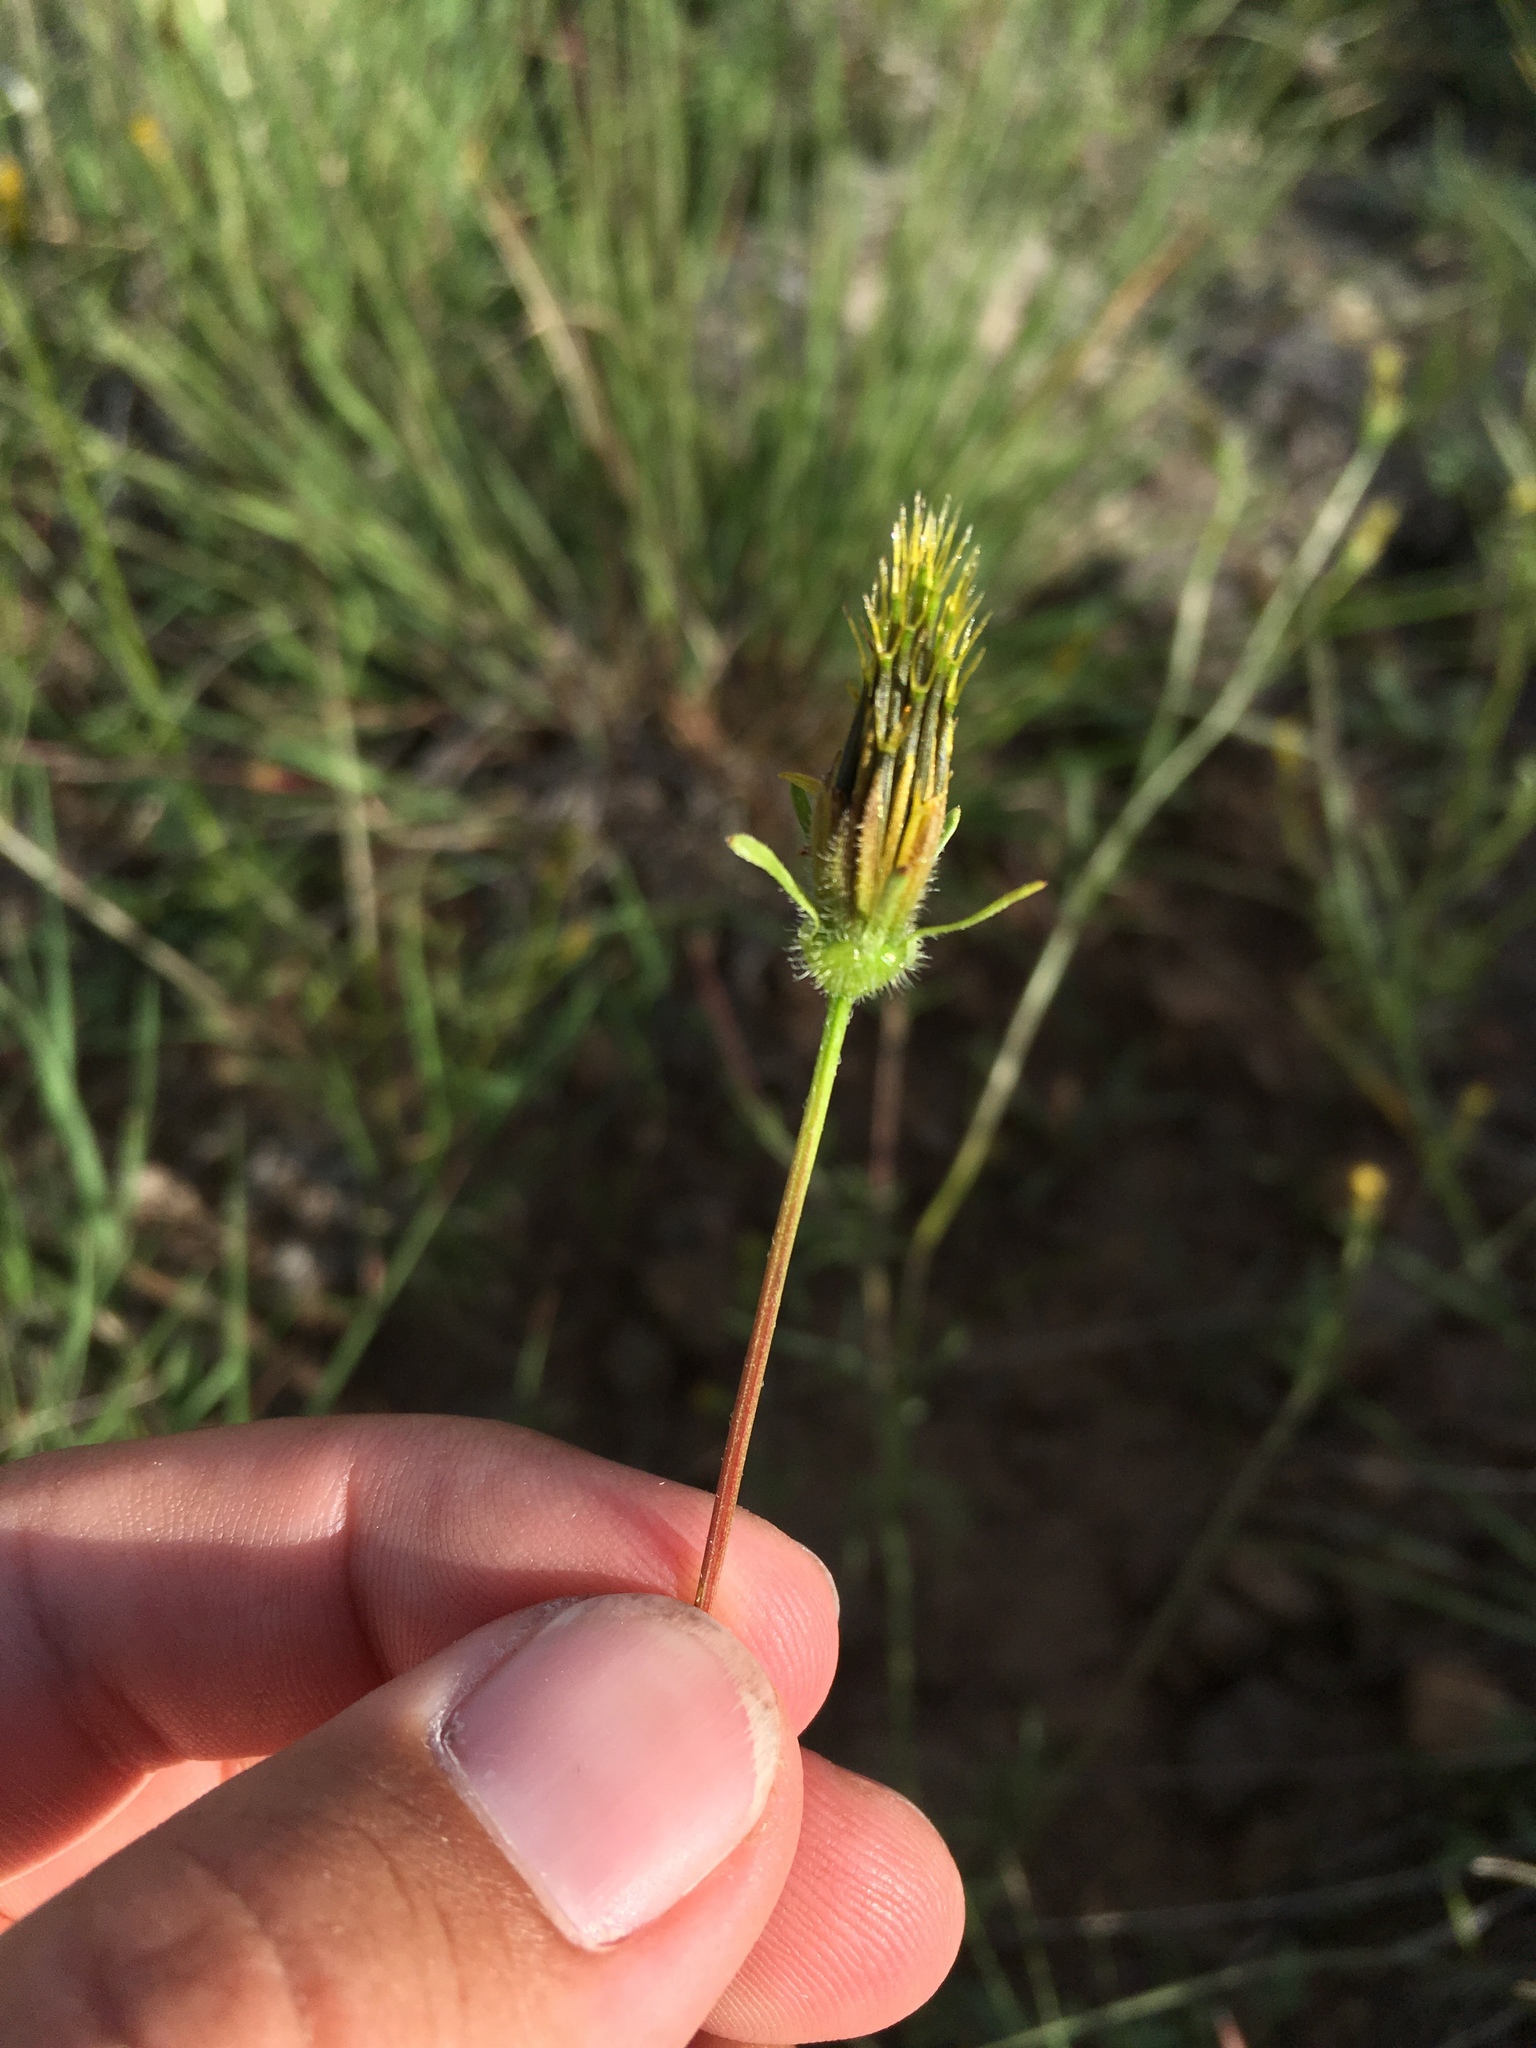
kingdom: Plantae
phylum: Tracheophyta
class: Magnoliopsida
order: Asterales
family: Asteraceae
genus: Bidens
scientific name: Bidens tenuisecta
